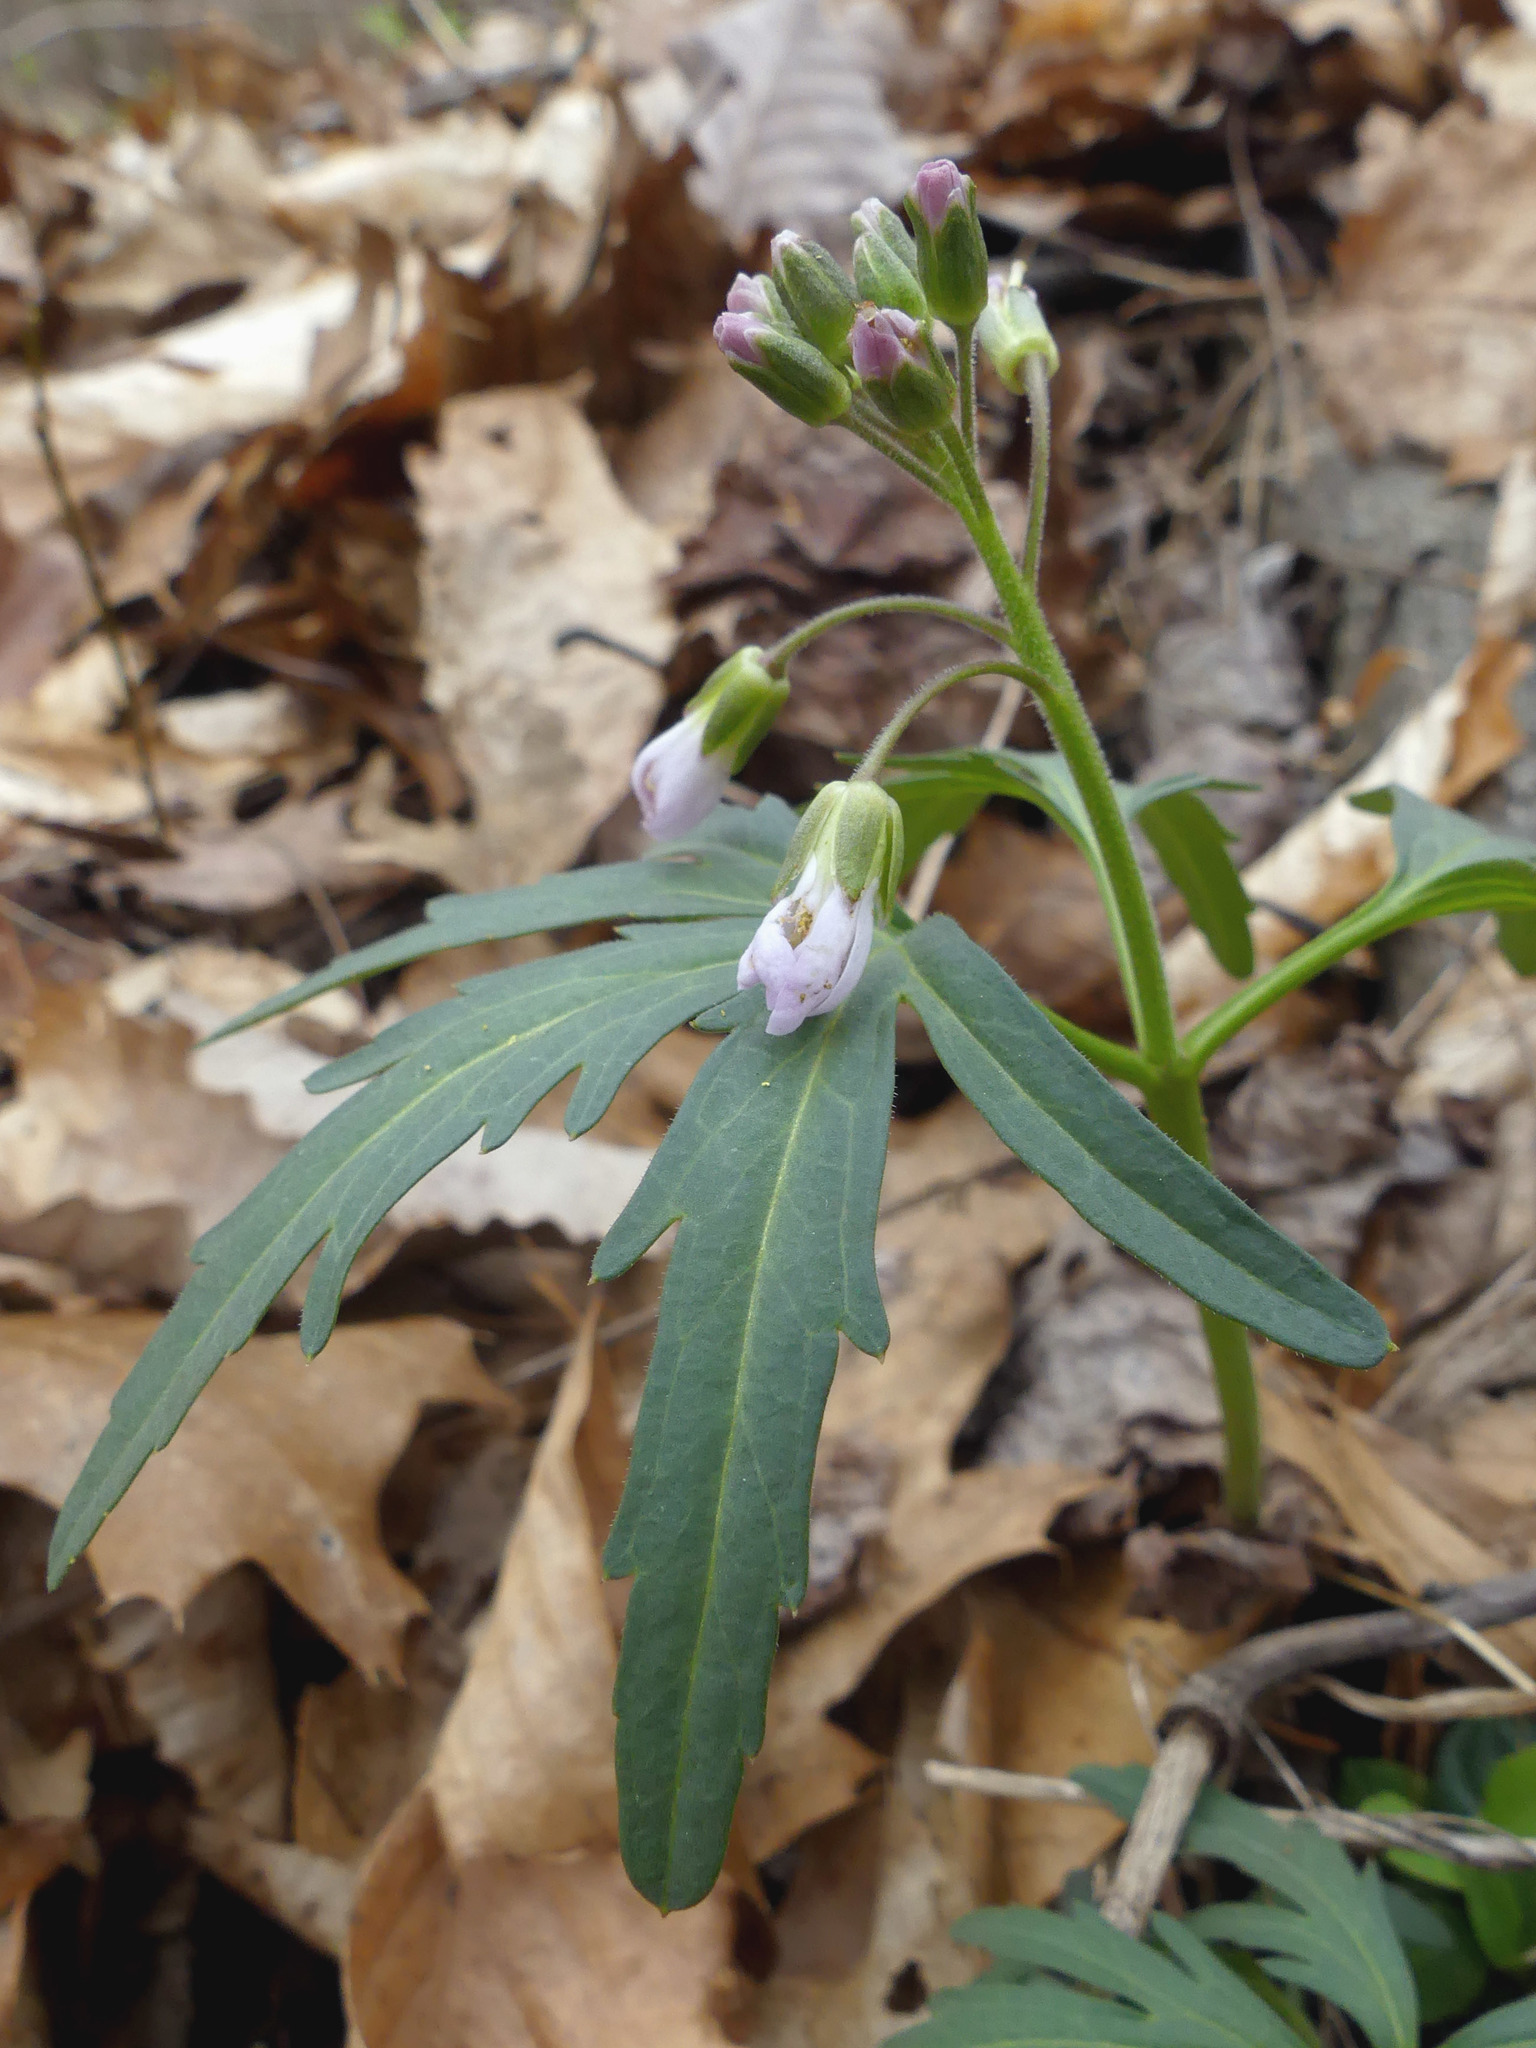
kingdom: Plantae
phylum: Tracheophyta
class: Magnoliopsida
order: Brassicales
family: Brassicaceae
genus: Cardamine
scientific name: Cardamine concatenata
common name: Cut-leaf toothcup
